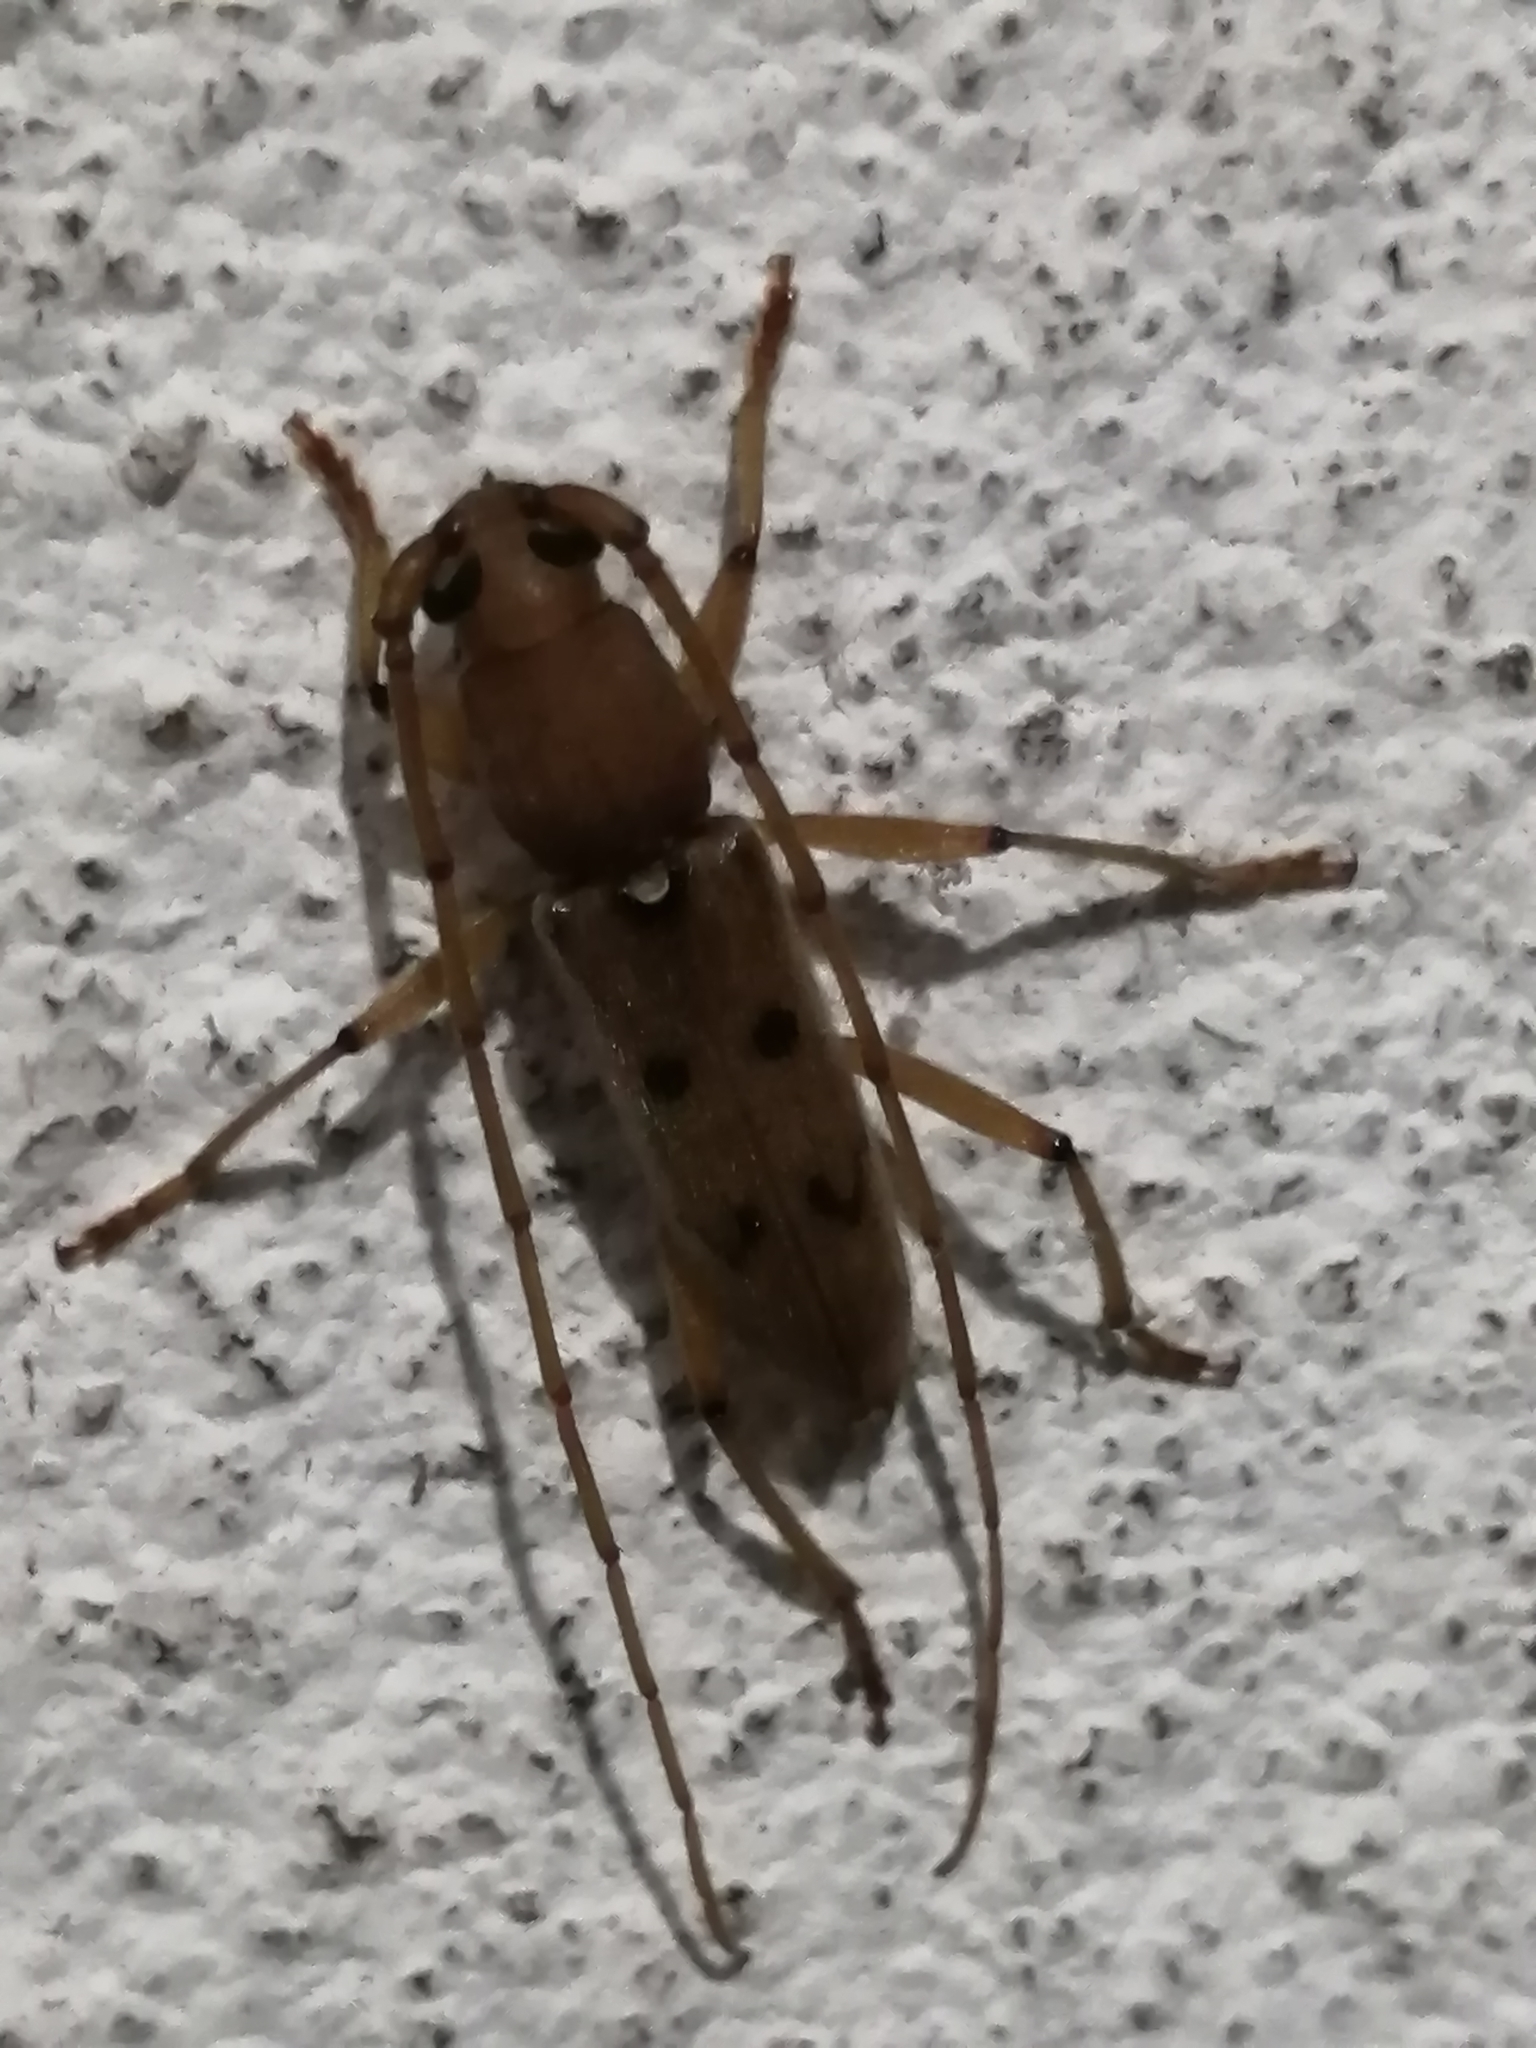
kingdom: Animalia
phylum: Arthropoda
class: Insecta
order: Coleoptera
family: Cerambycidae
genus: Achryson
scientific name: Achryson surinamum
